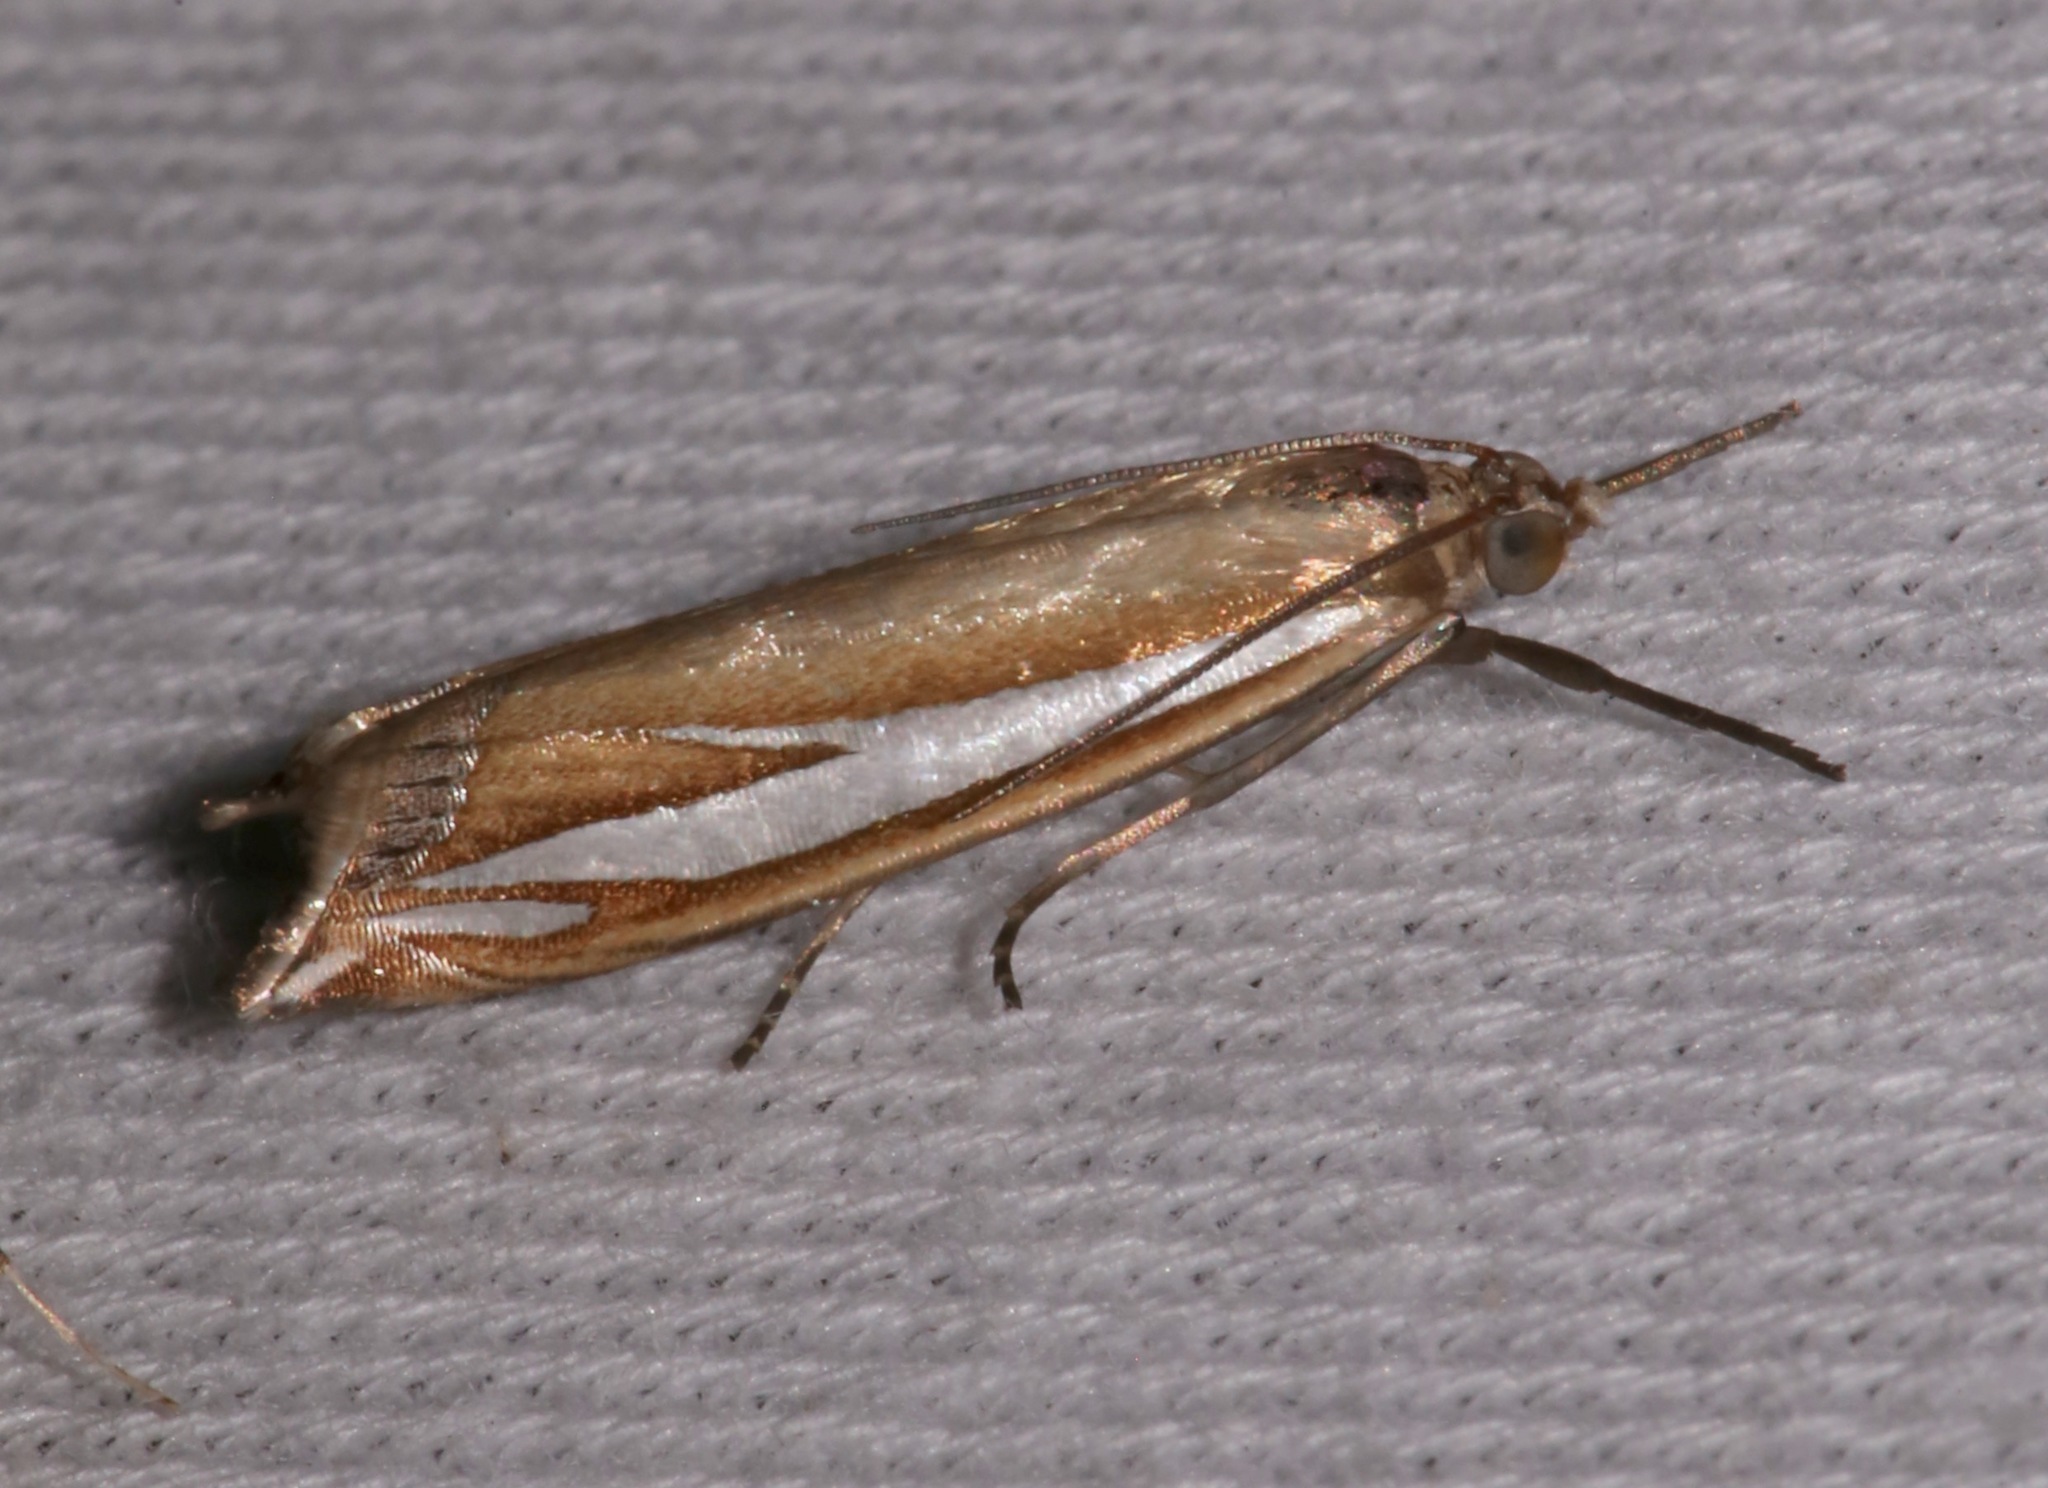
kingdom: Animalia
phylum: Arthropoda
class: Insecta
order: Lepidoptera
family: Crambidae
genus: Crambus
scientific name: Crambus satrapellus
